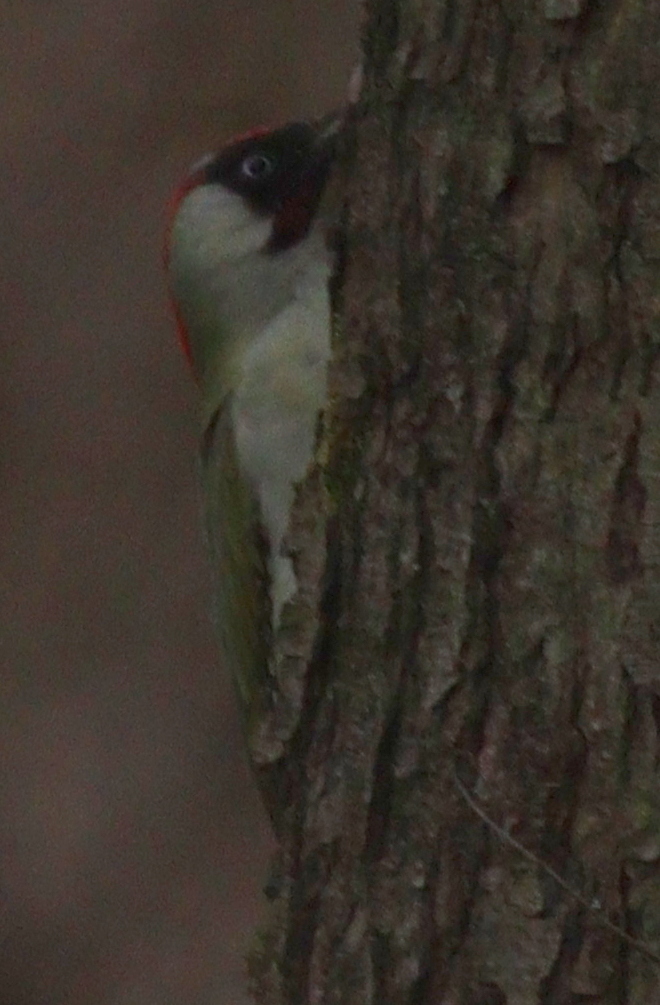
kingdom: Animalia
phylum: Chordata
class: Aves
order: Piciformes
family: Picidae
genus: Picus
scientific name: Picus viridis
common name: European green woodpecker
